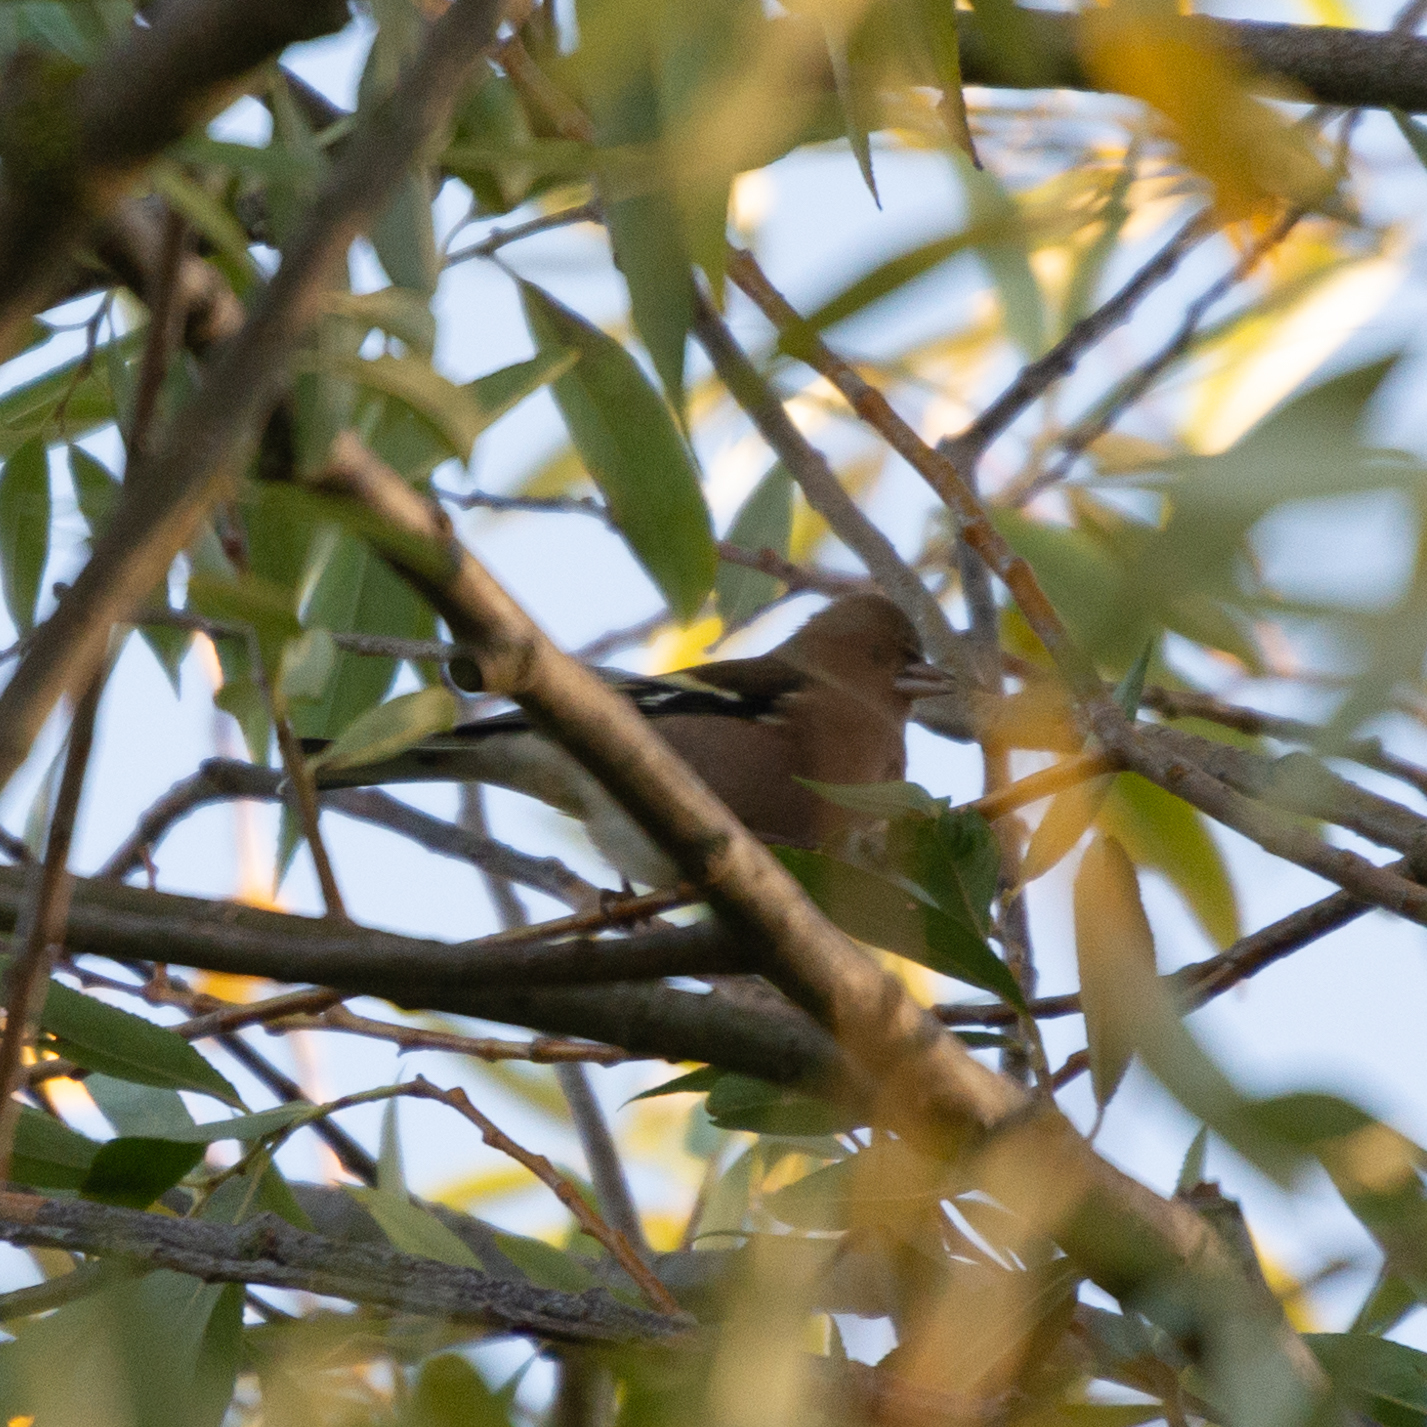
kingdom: Animalia
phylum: Chordata
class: Aves
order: Passeriformes
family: Fringillidae
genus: Fringilla
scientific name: Fringilla coelebs
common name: Common chaffinch
